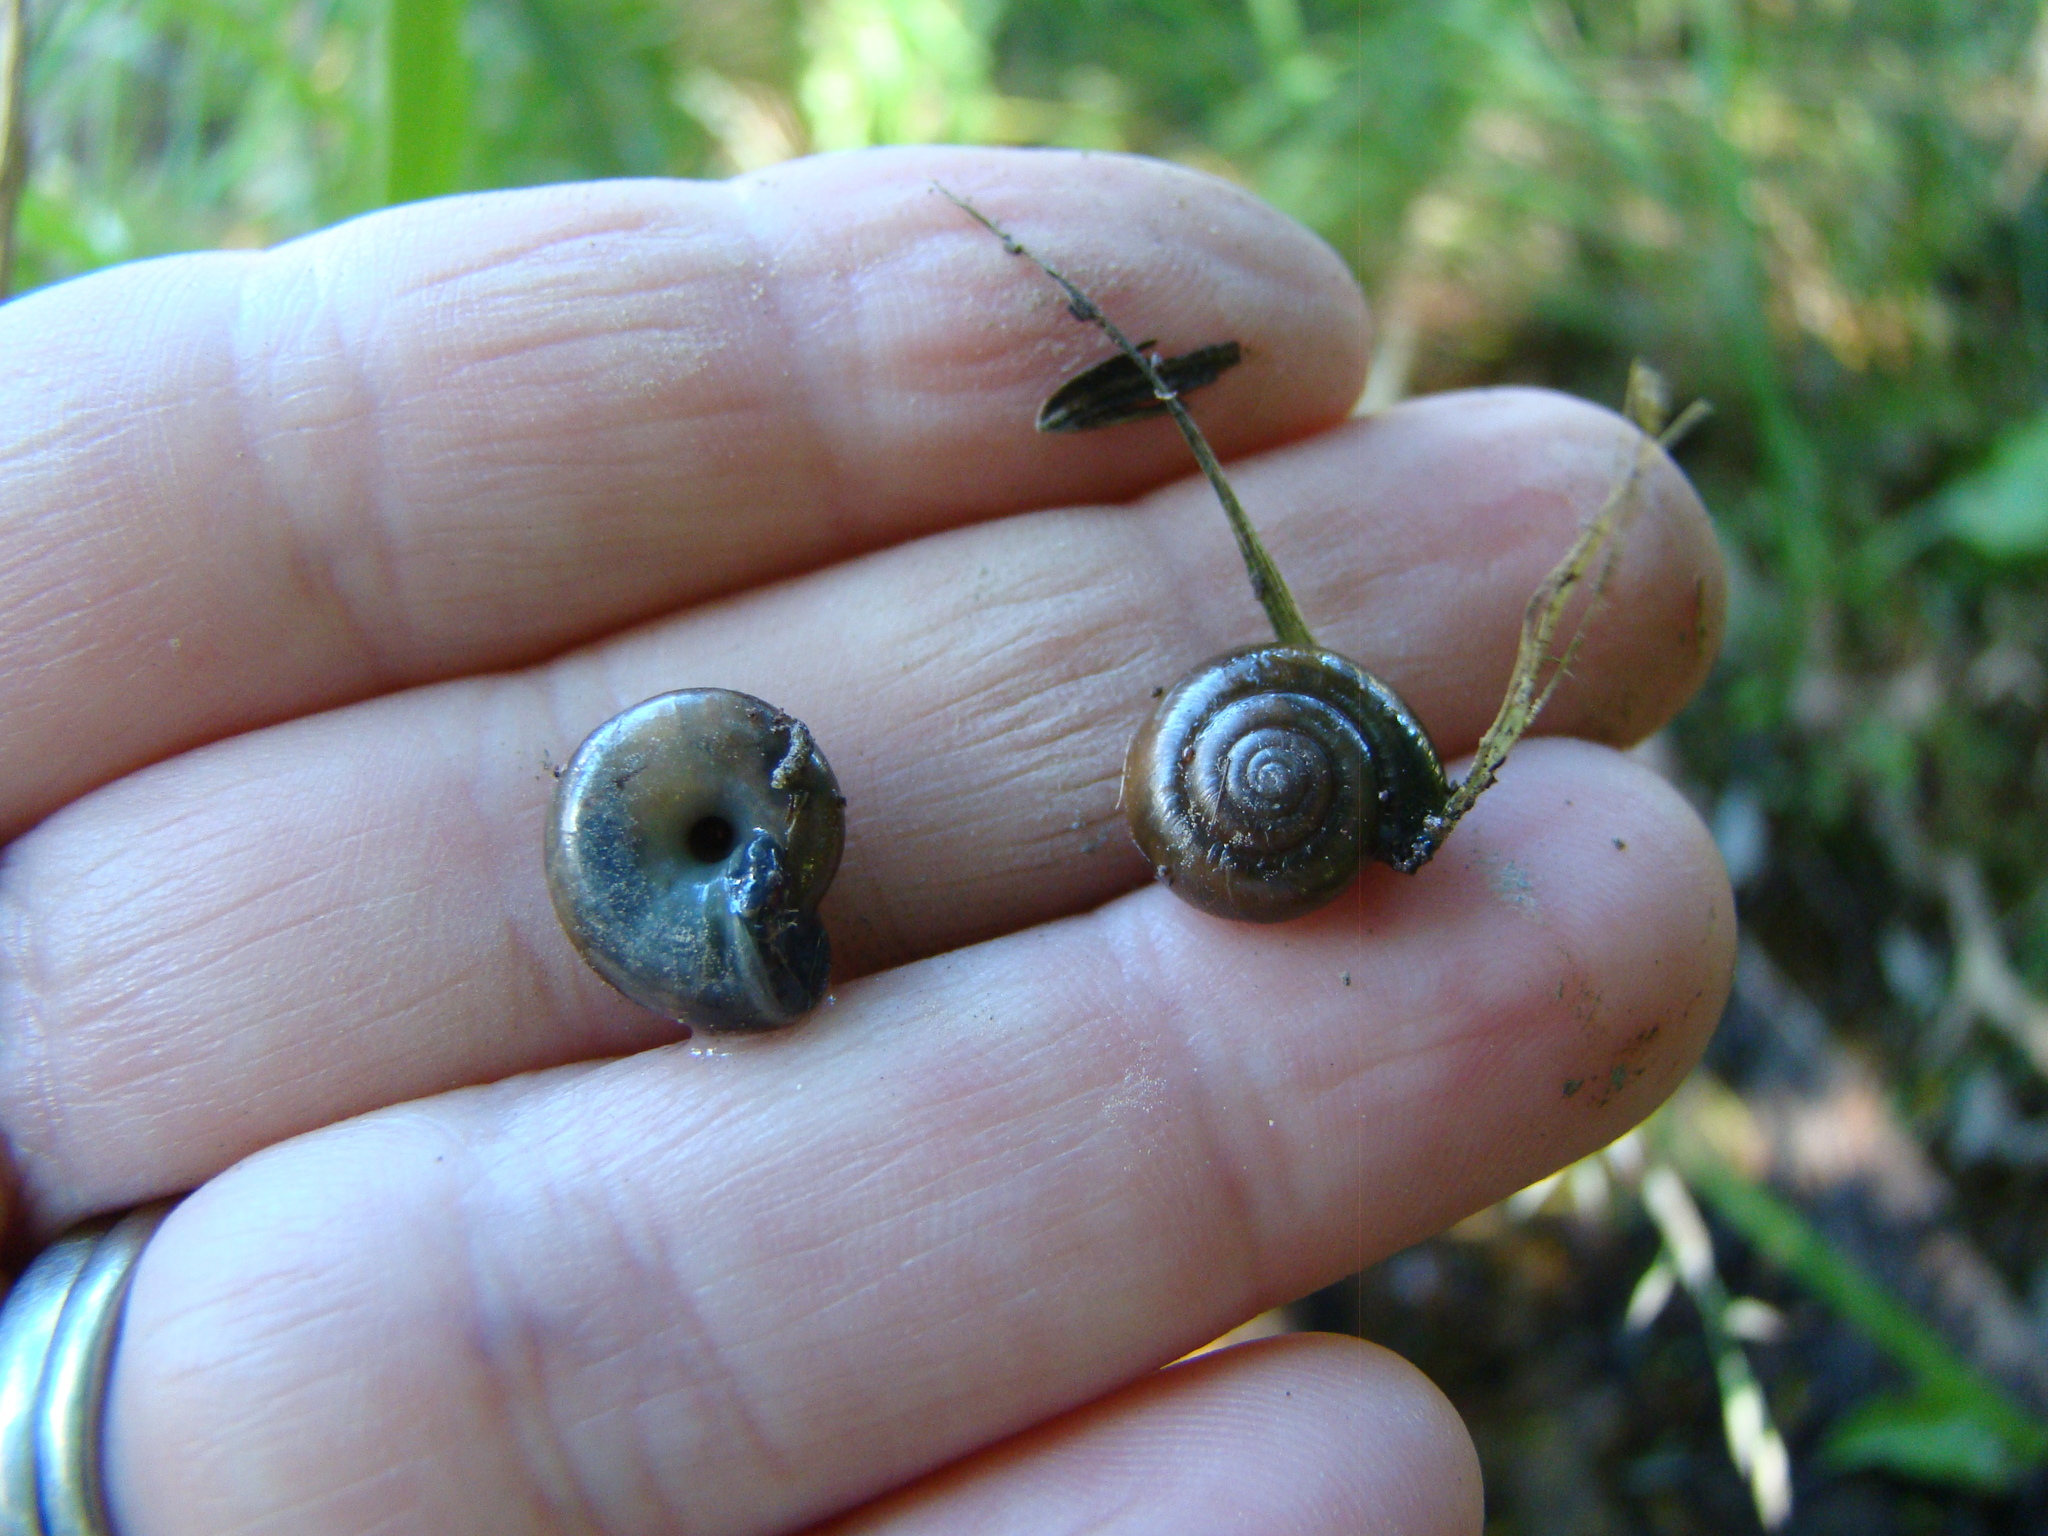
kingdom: Animalia
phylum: Mollusca
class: Gastropoda
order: Stylommatophora
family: Oxychilidae
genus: Oxychilus
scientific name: Oxychilus draparnaudi
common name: Draparnaud's glass snail
